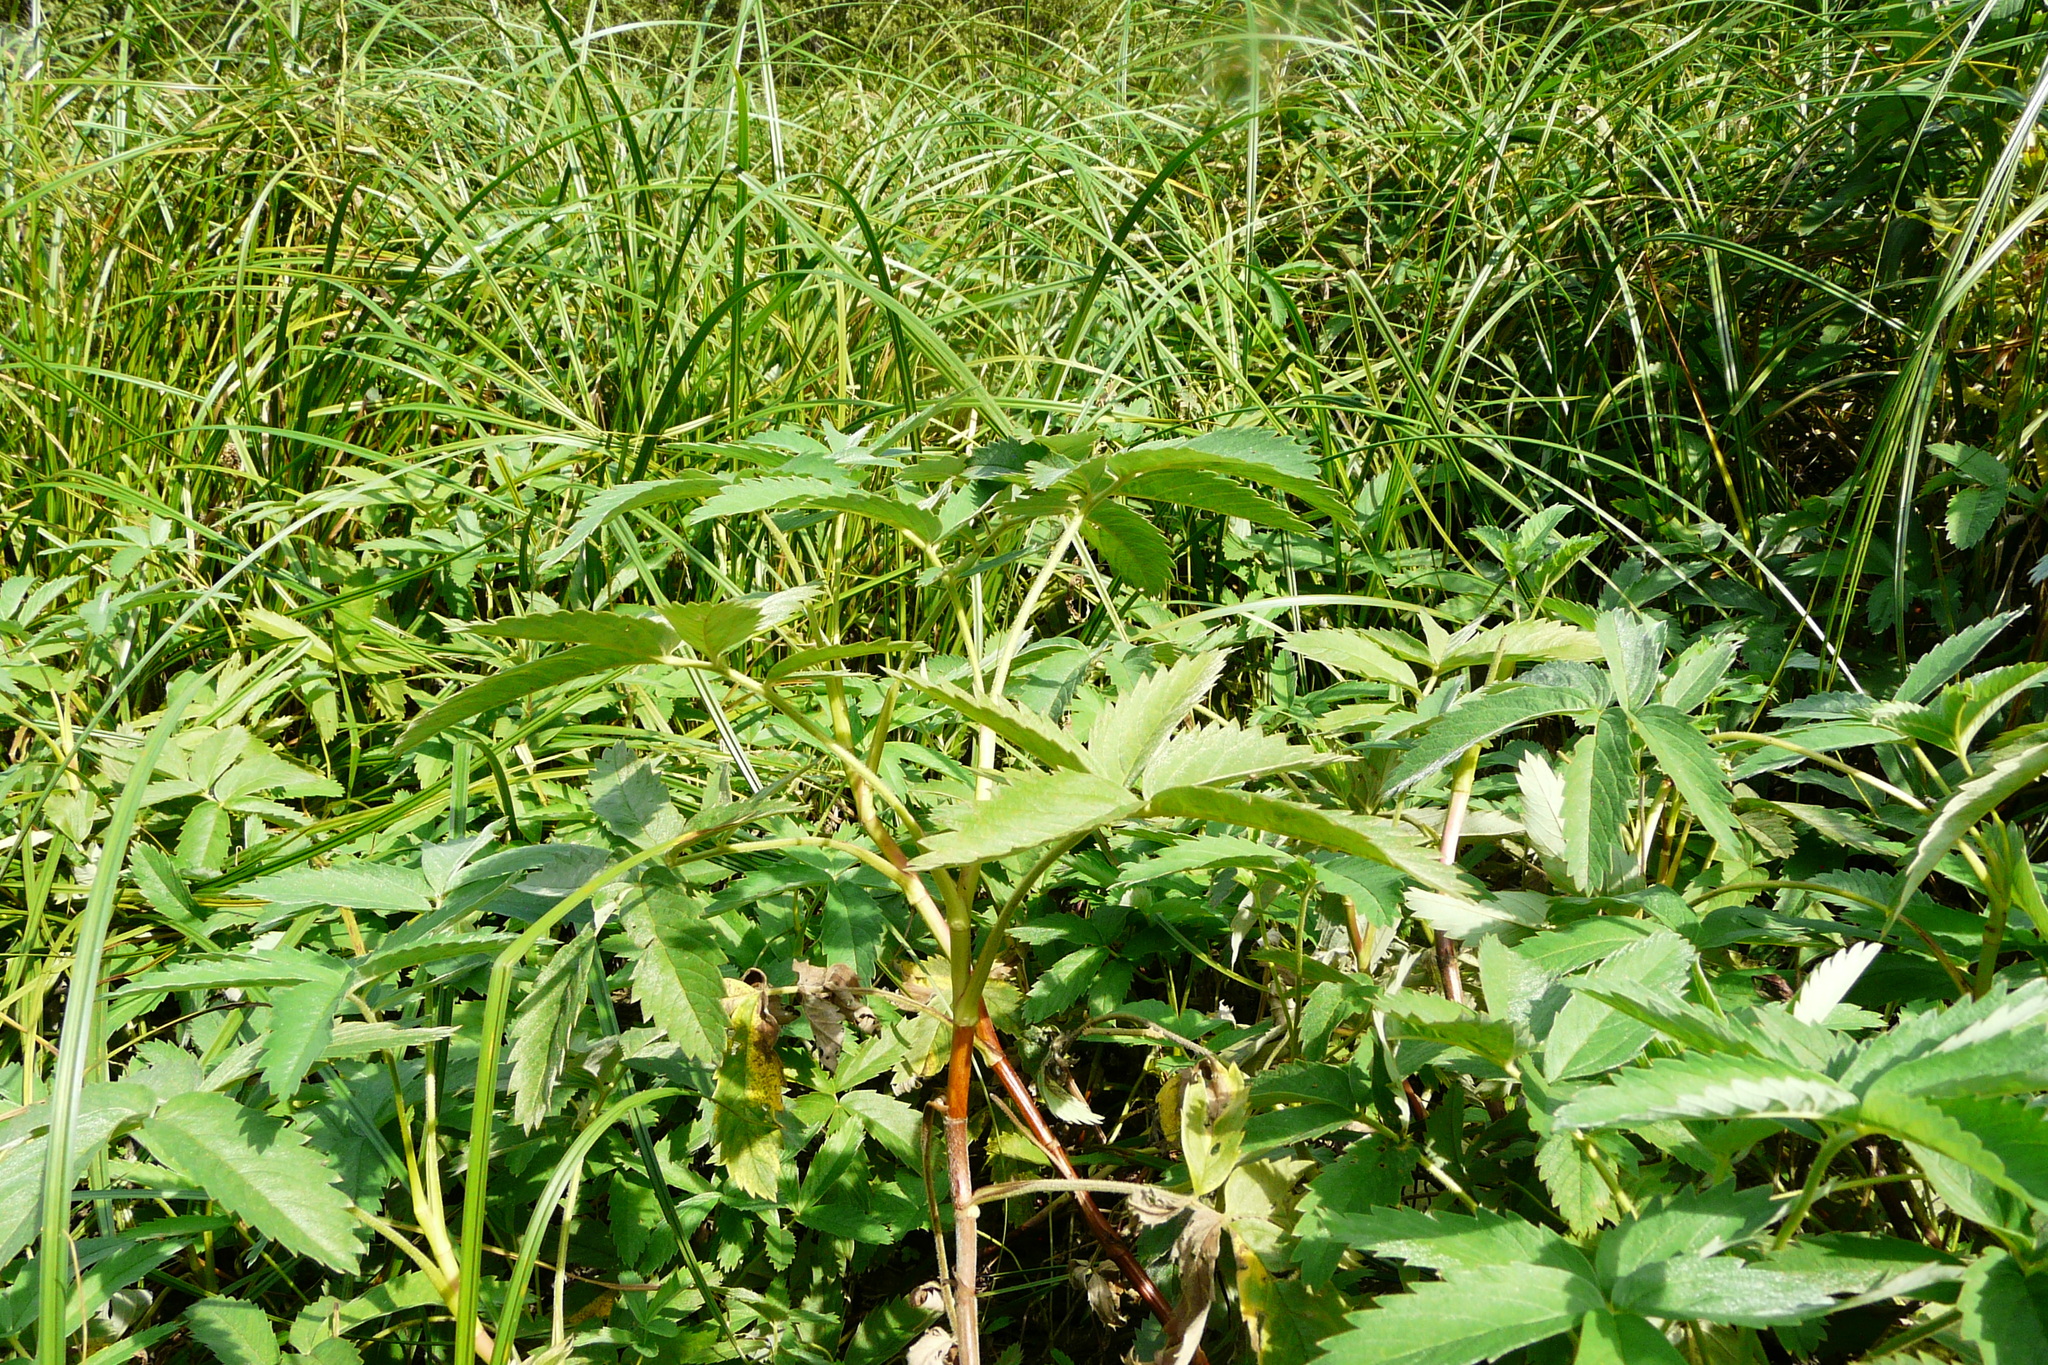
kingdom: Plantae
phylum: Tracheophyta
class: Magnoliopsida
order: Rosales
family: Rosaceae
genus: Comarum
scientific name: Comarum palustre
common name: Marsh cinquefoil
